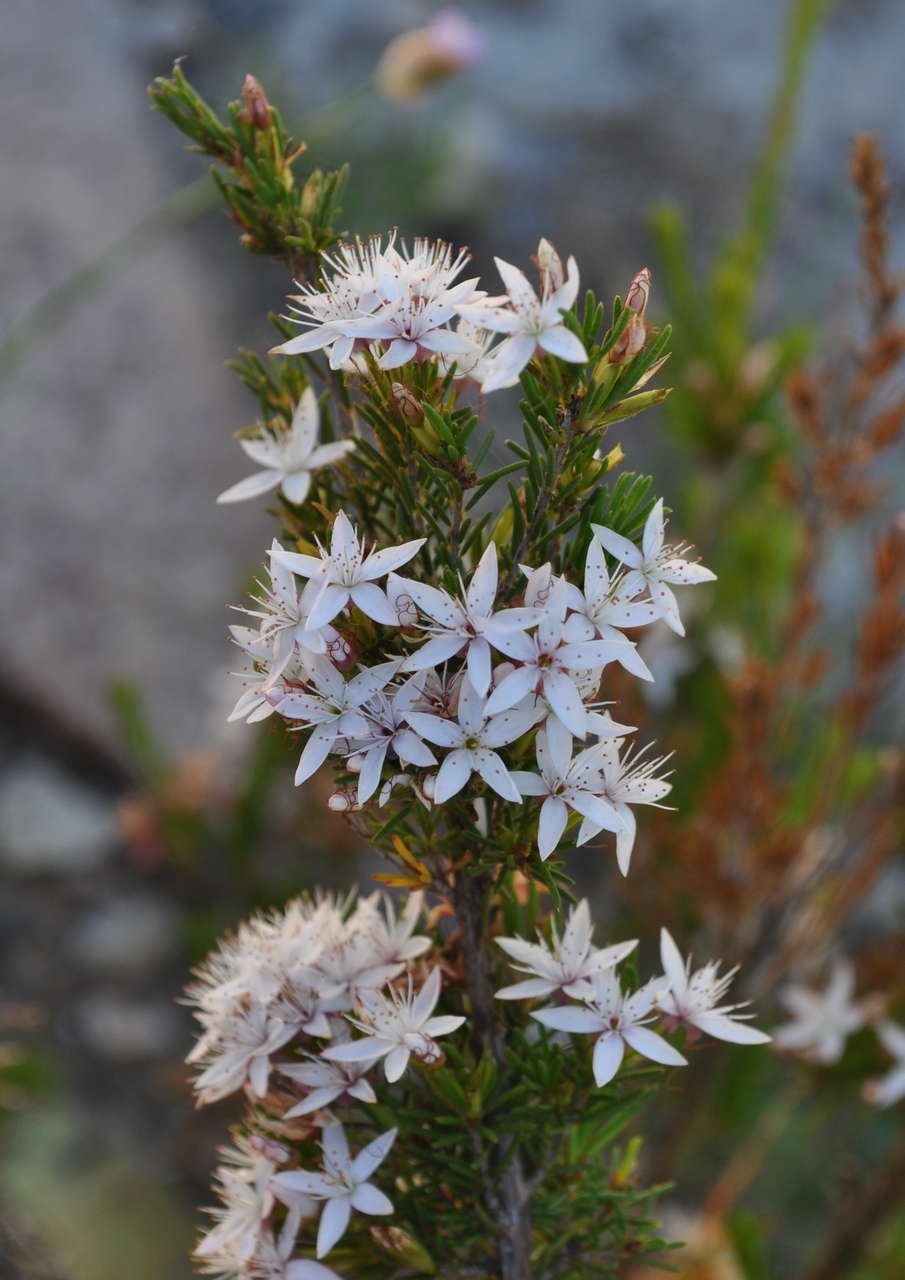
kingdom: Plantae
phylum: Tracheophyta
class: Magnoliopsida
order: Myrtales
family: Myrtaceae
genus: Calytrix
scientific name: Calytrix tetragona
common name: Common fringe myrtle
